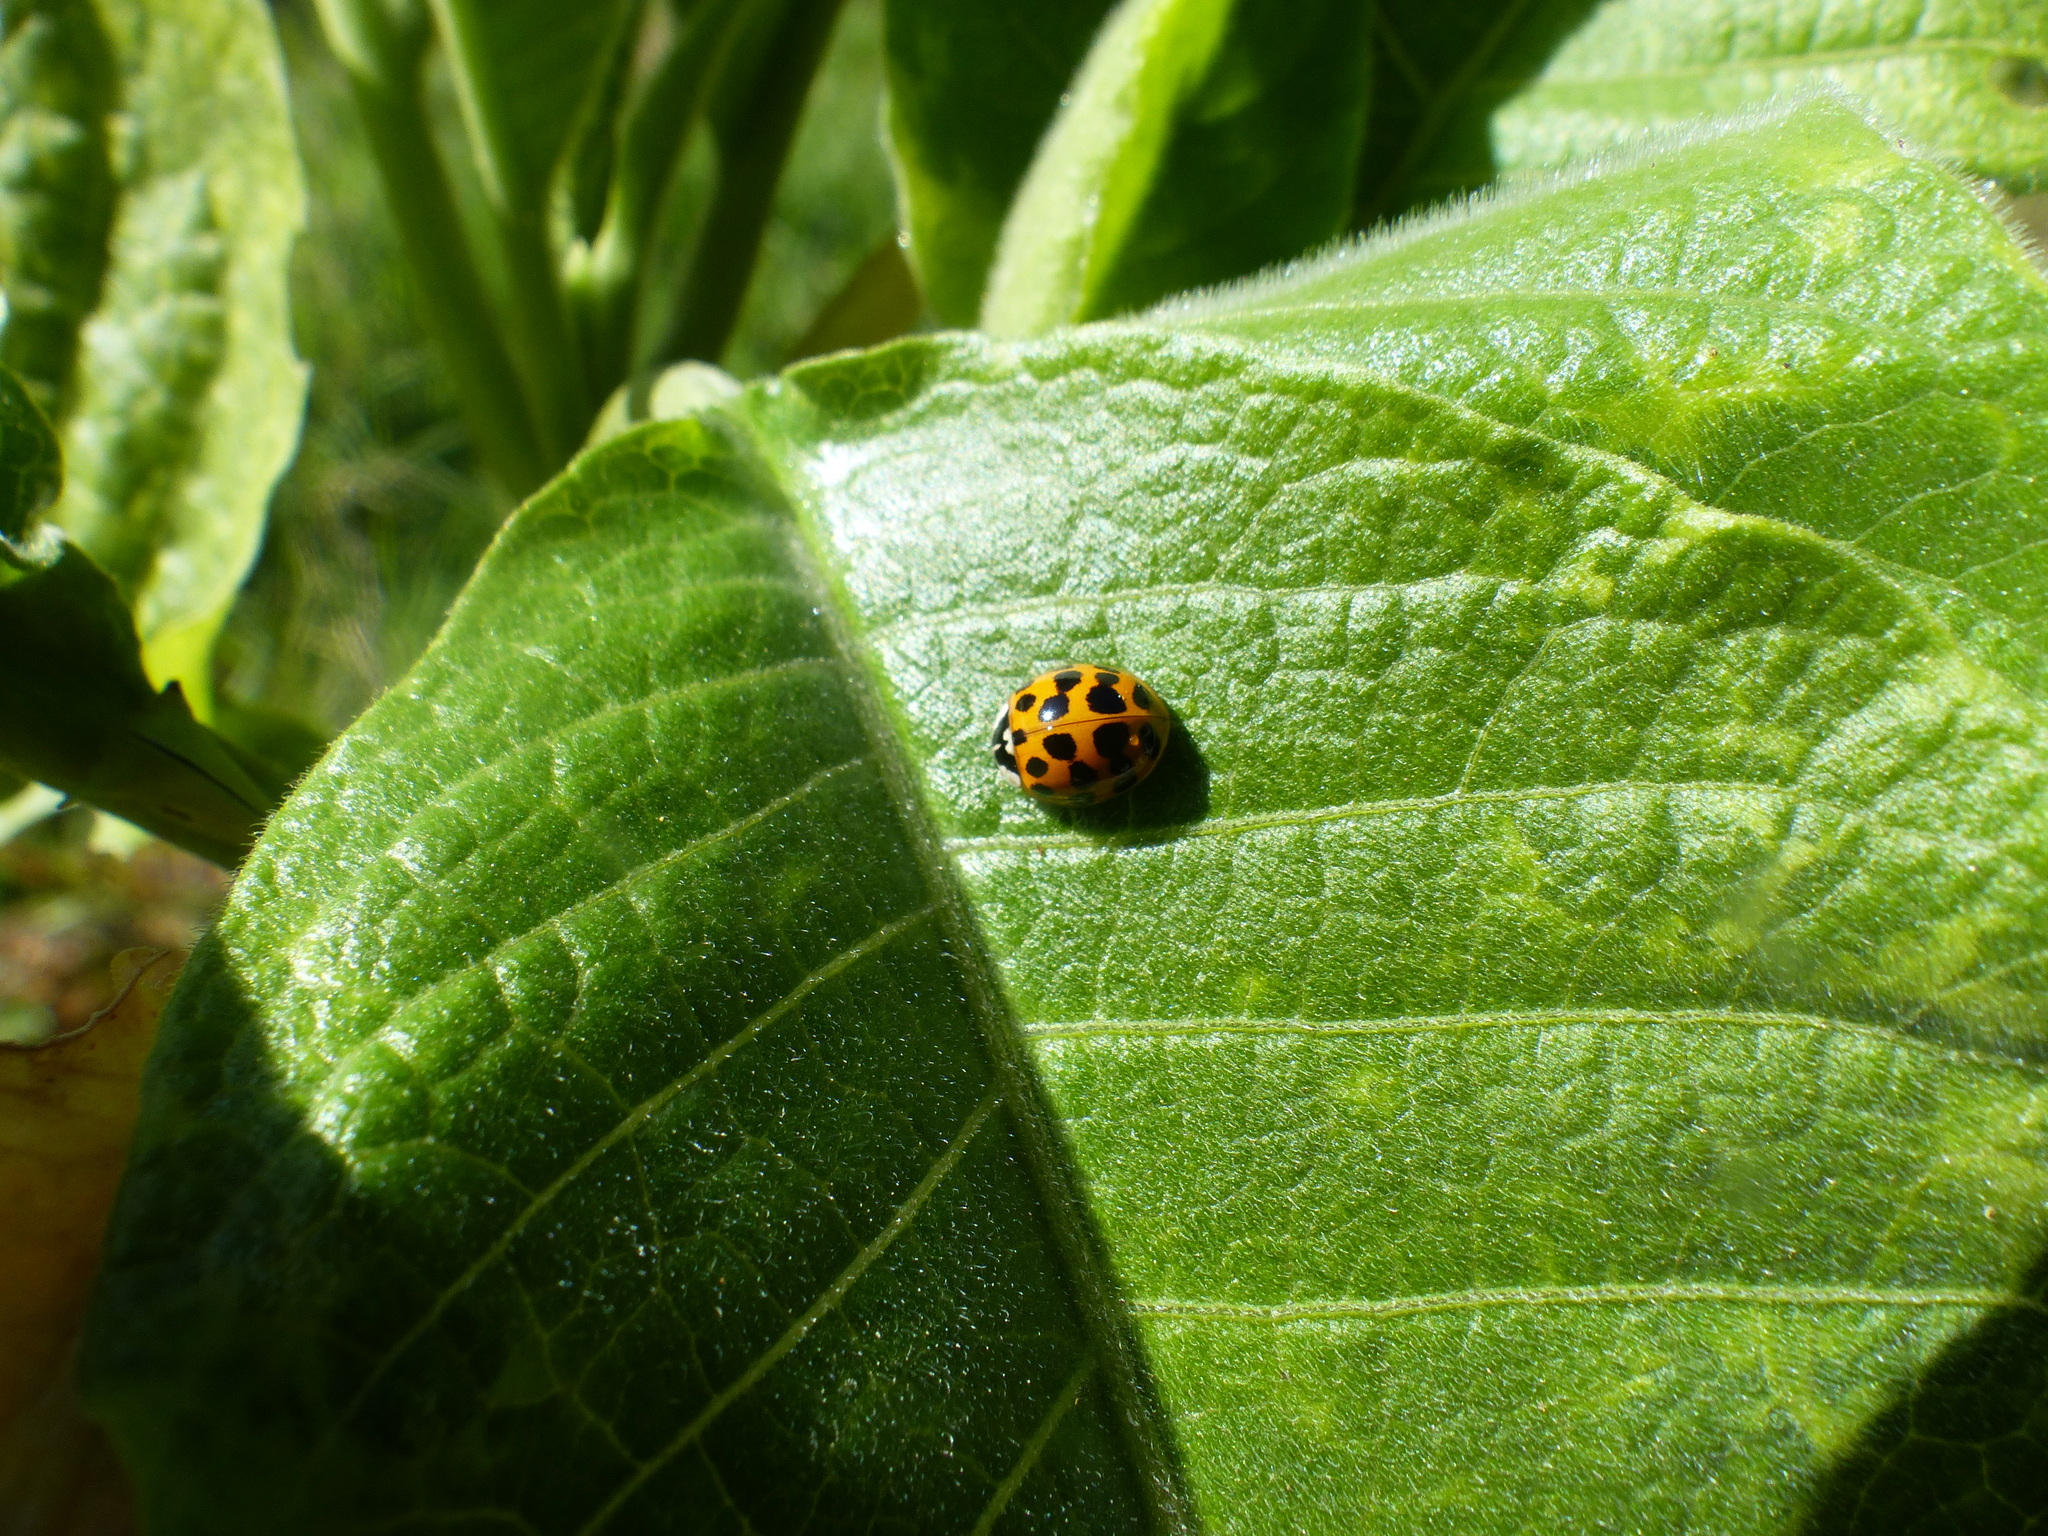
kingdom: Animalia
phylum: Arthropoda
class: Insecta
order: Coleoptera
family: Coccinellidae
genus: Harmonia
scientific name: Harmonia axyridis
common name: Harlequin ladybird
